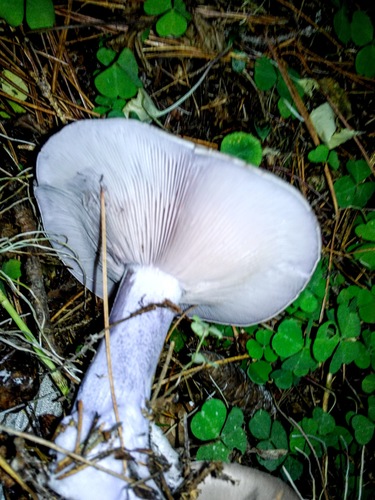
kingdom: Fungi
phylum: Basidiomycota
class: Agaricomycetes
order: Agaricales
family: Tricholomataceae
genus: Lepista
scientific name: Lepista personata
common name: Field blewit
